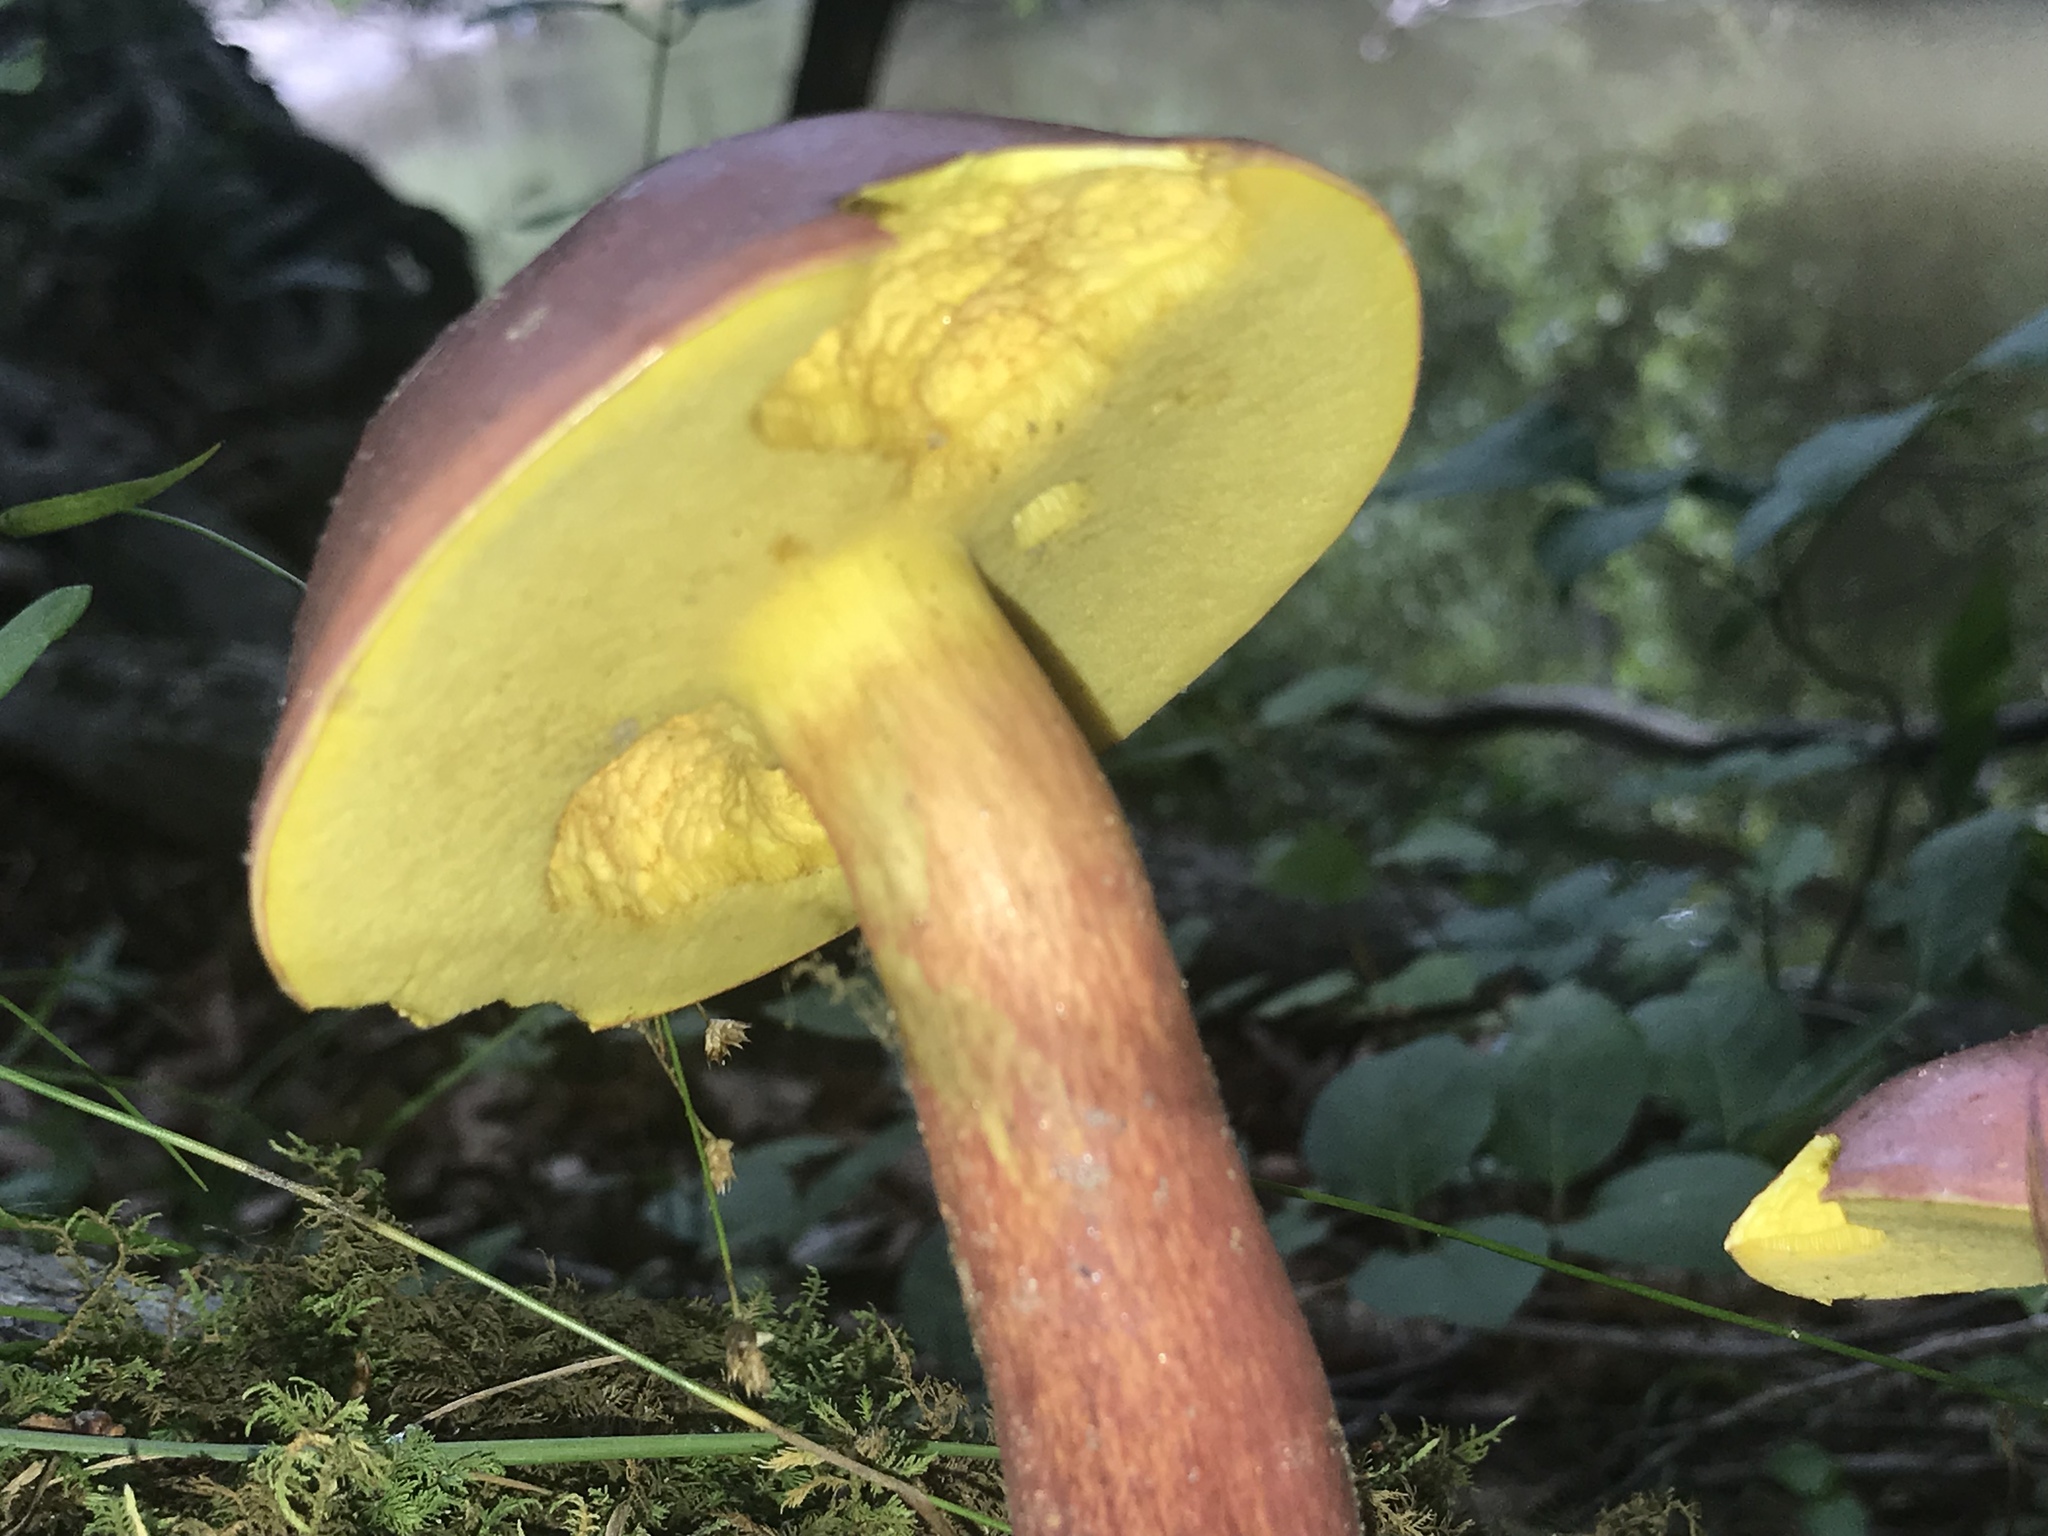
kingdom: Fungi
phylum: Basidiomycota
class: Agaricomycetes
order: Boletales
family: Boletaceae
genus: Baorangia
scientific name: Baorangia bicolor
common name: Two-colored bolete
